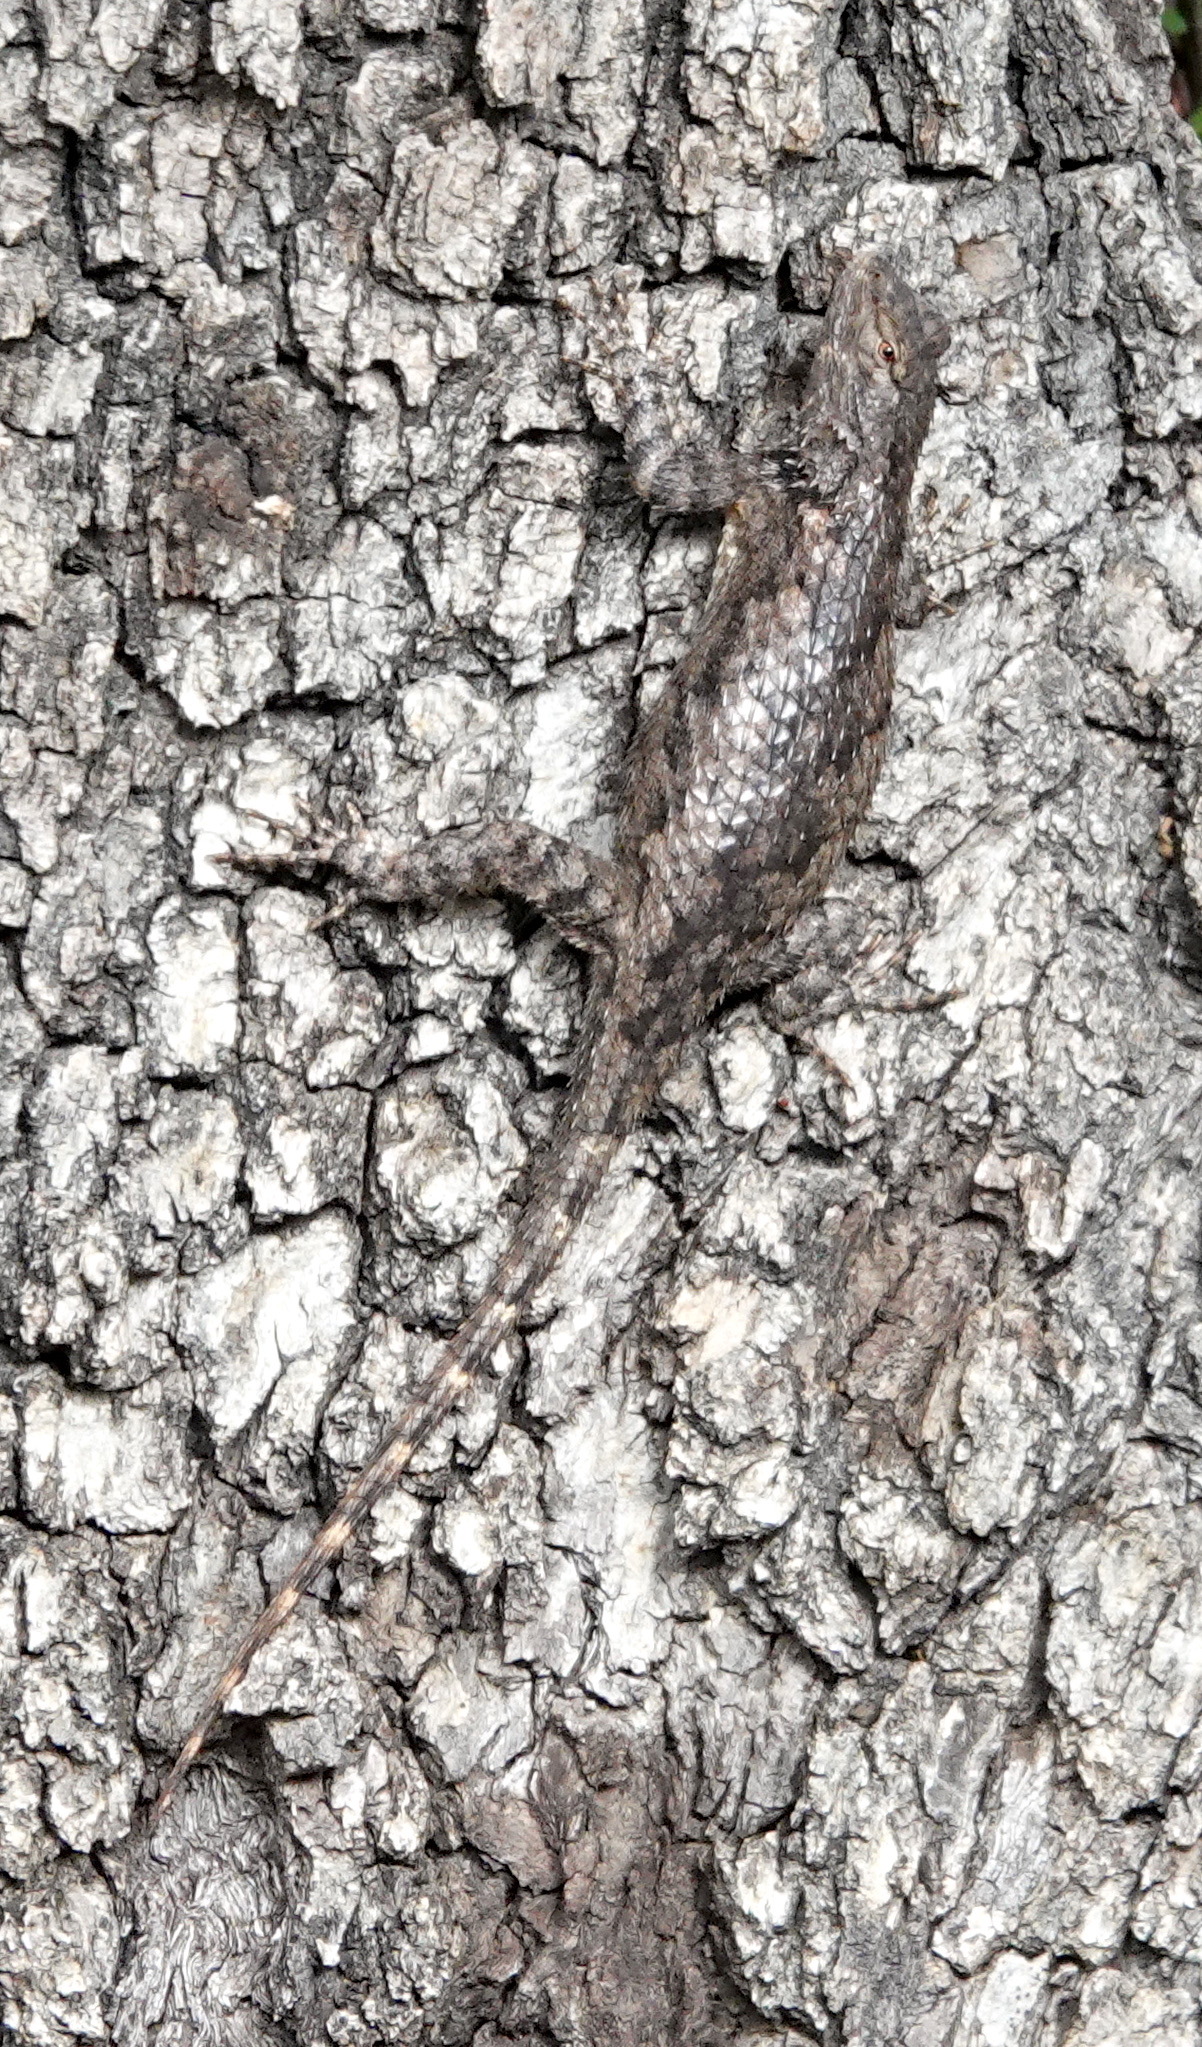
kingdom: Animalia
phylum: Chordata
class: Squamata
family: Phrynosomatidae
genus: Sceloporus
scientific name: Sceloporus clarkii
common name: Clark's spiny lizard
